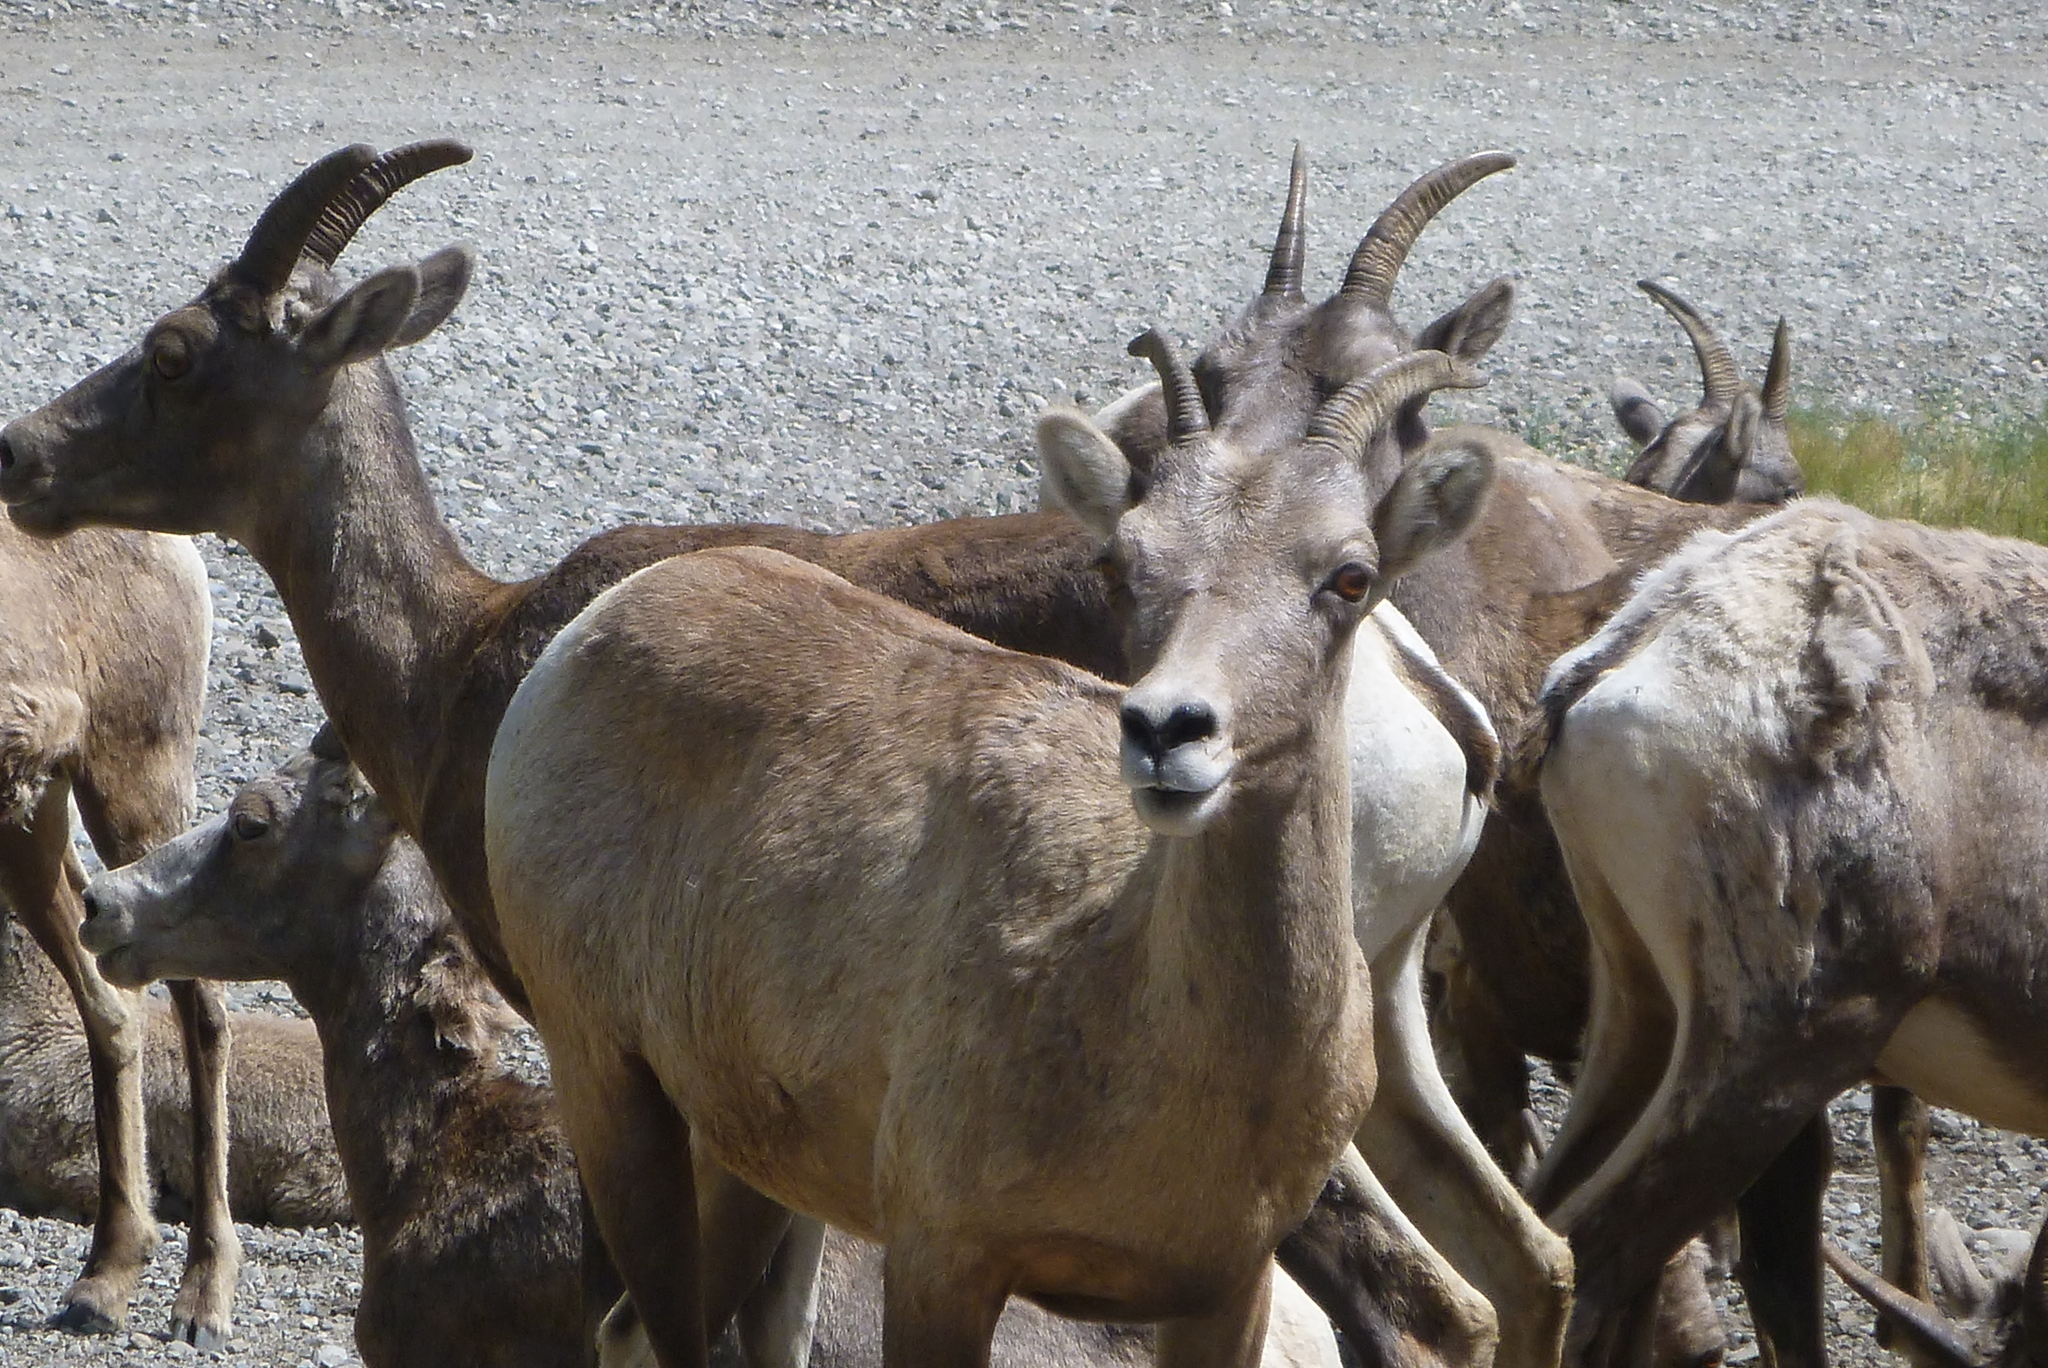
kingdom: Animalia
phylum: Chordata
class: Mammalia
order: Artiodactyla
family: Bovidae
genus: Ovis
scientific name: Ovis canadensis
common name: Bighorn sheep
